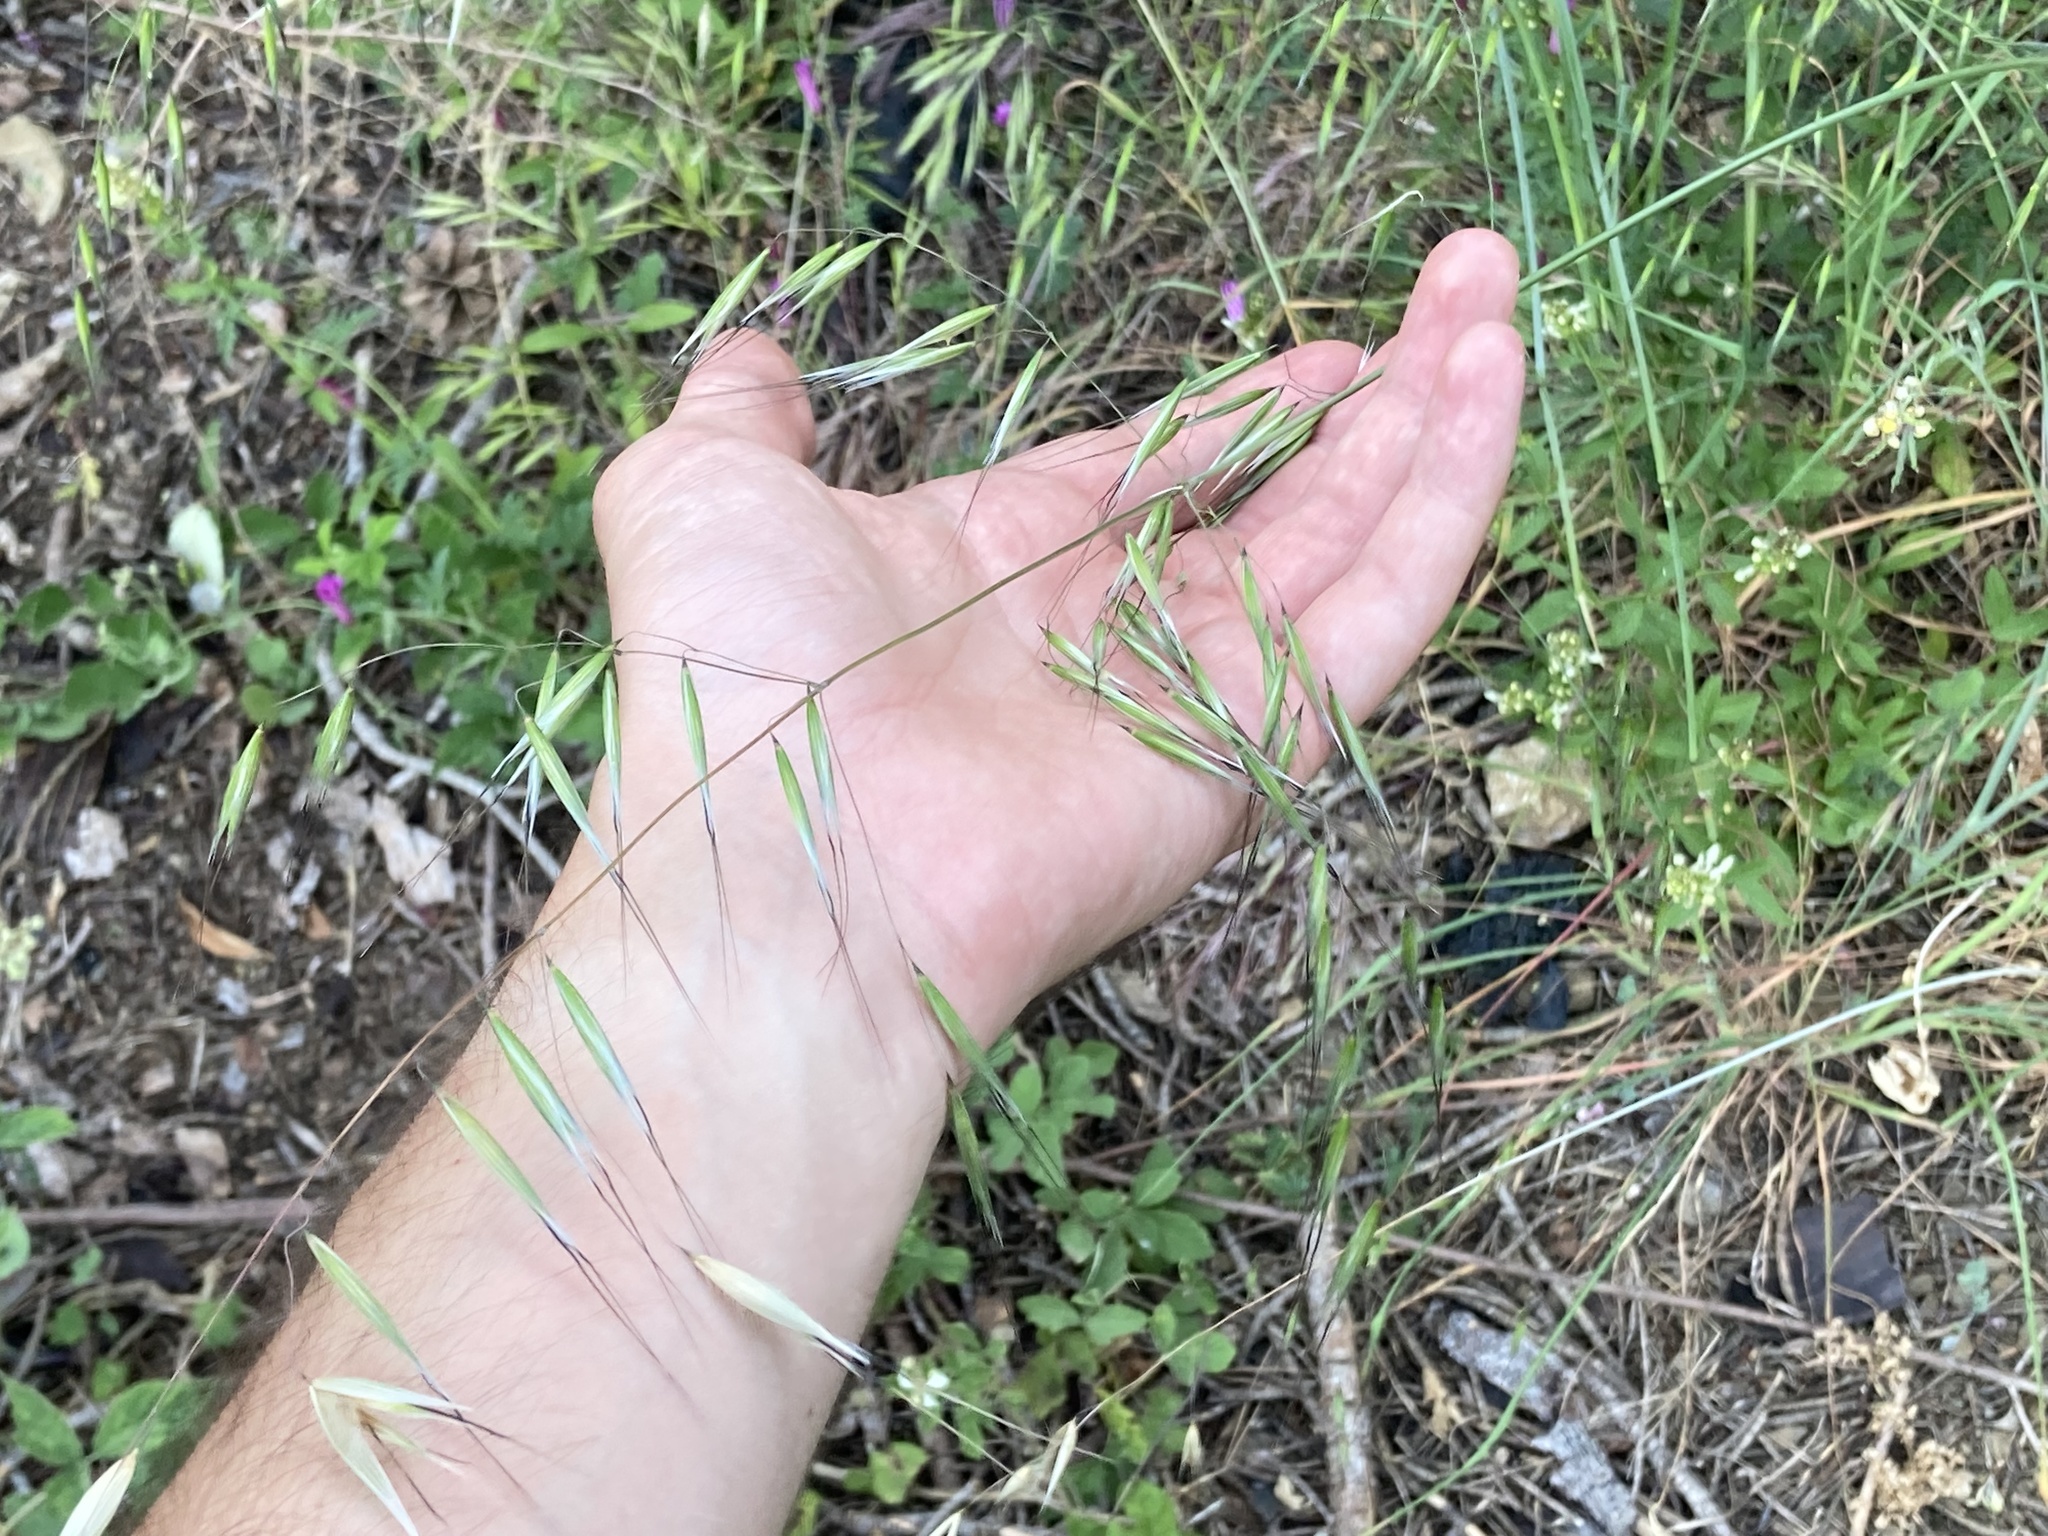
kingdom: Plantae
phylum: Tracheophyta
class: Liliopsida
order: Poales
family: Poaceae
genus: Avena
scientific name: Avena barbata
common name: Slender oat
